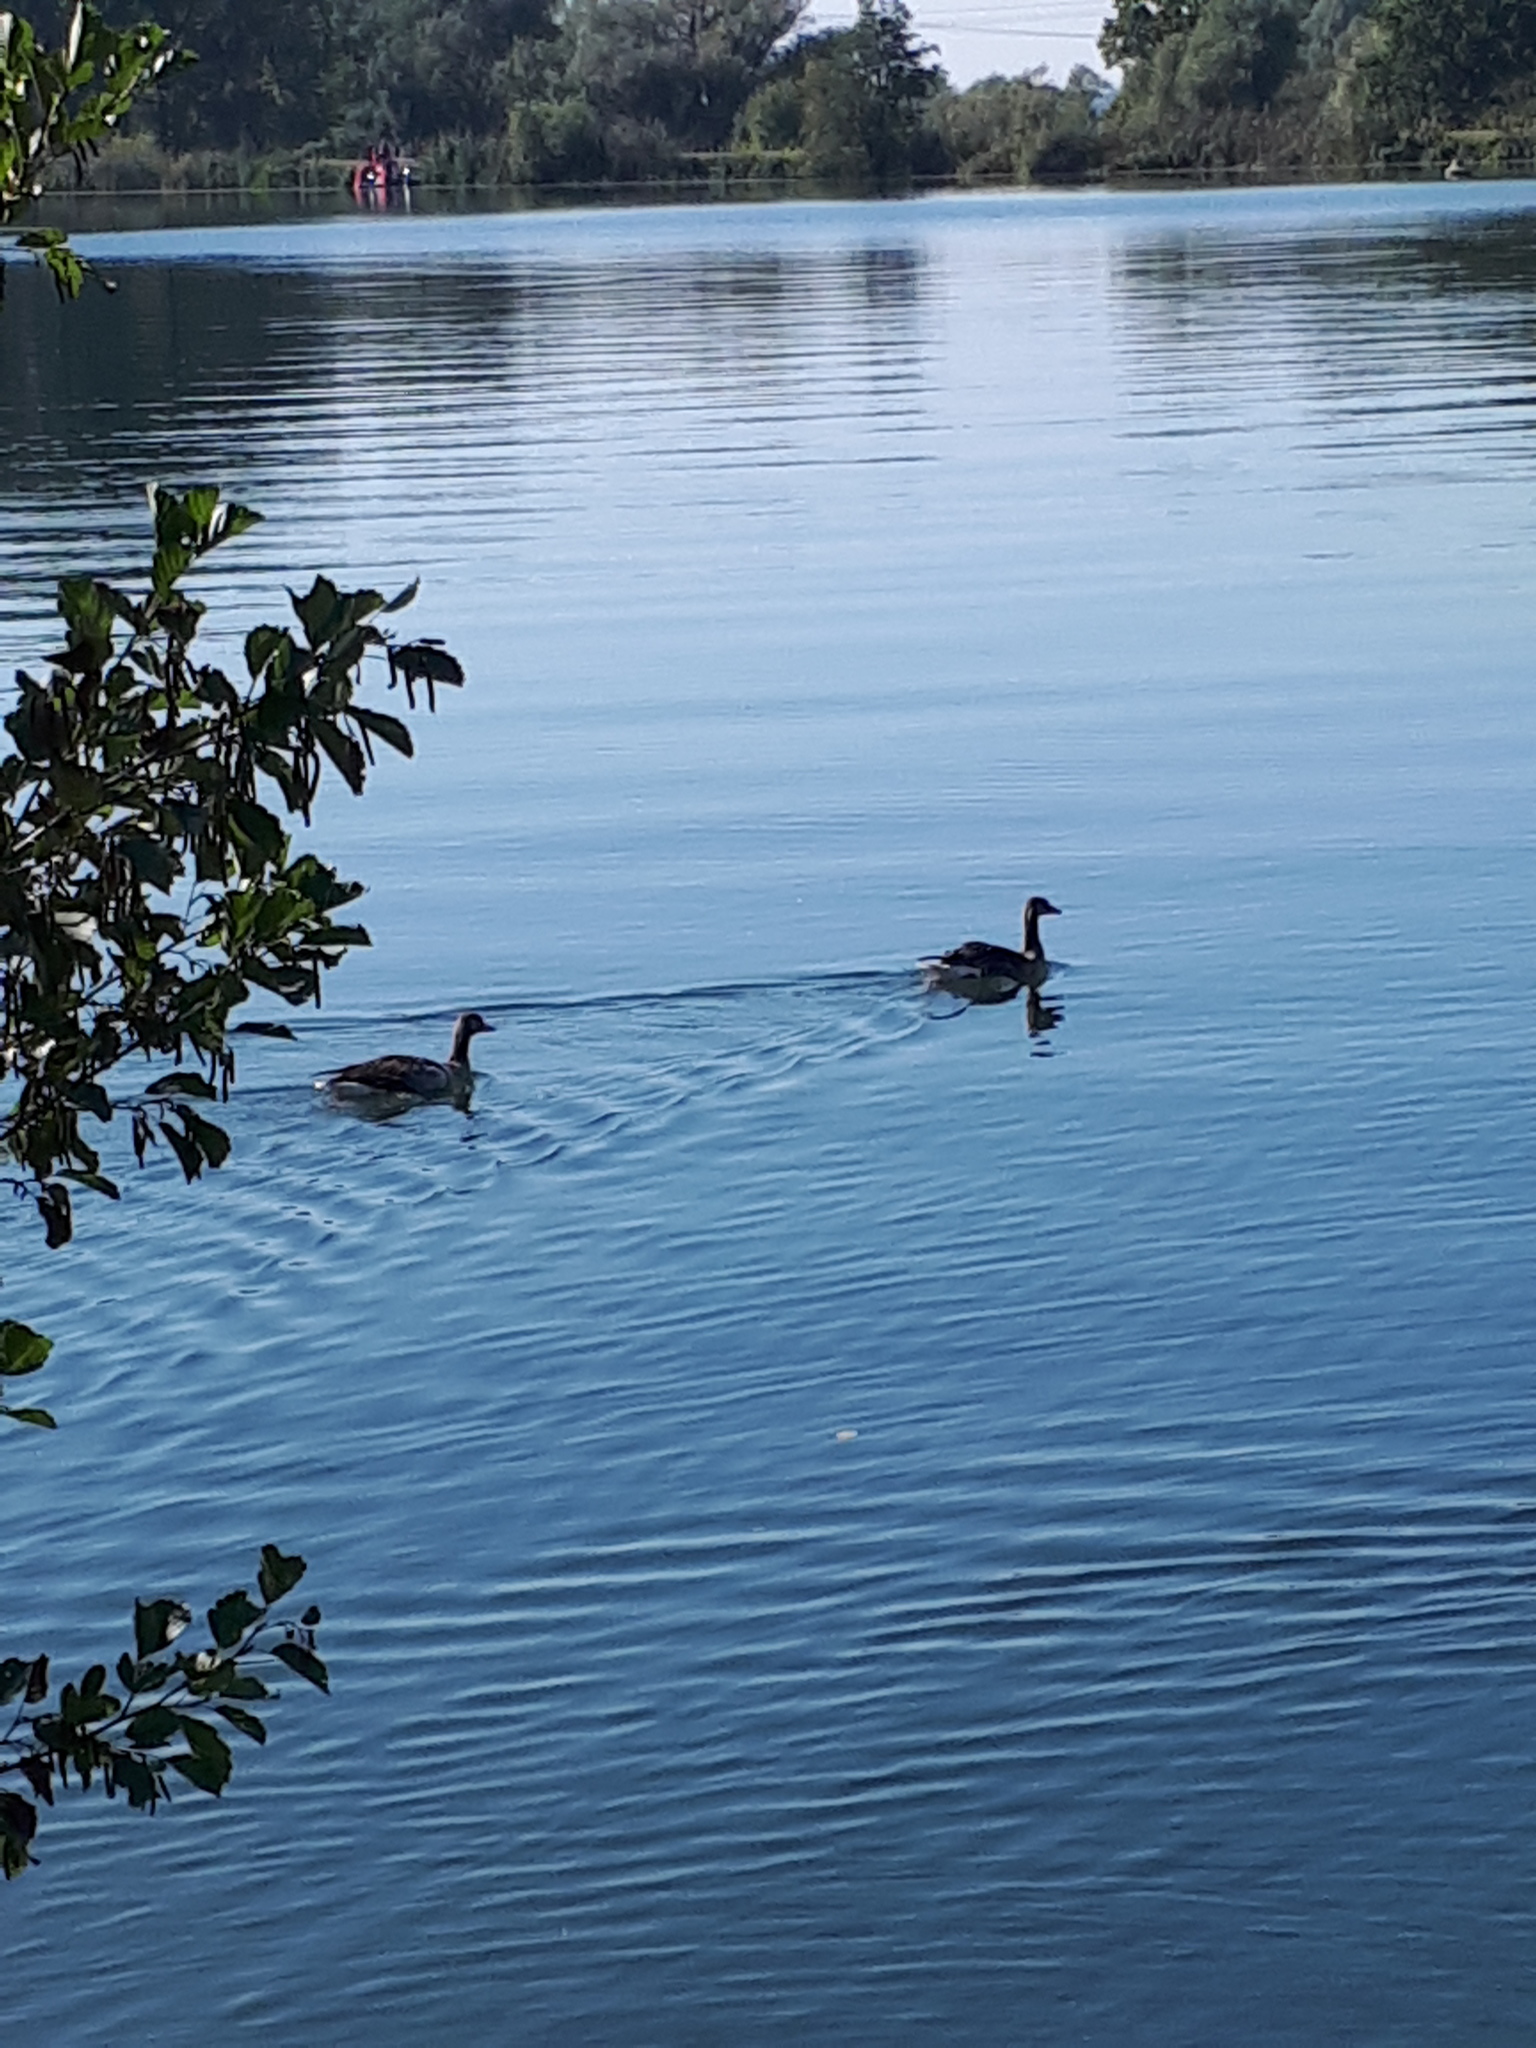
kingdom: Animalia
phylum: Chordata
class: Aves
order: Anseriformes
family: Anatidae
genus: Anser
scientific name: Anser anser
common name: Greylag goose
